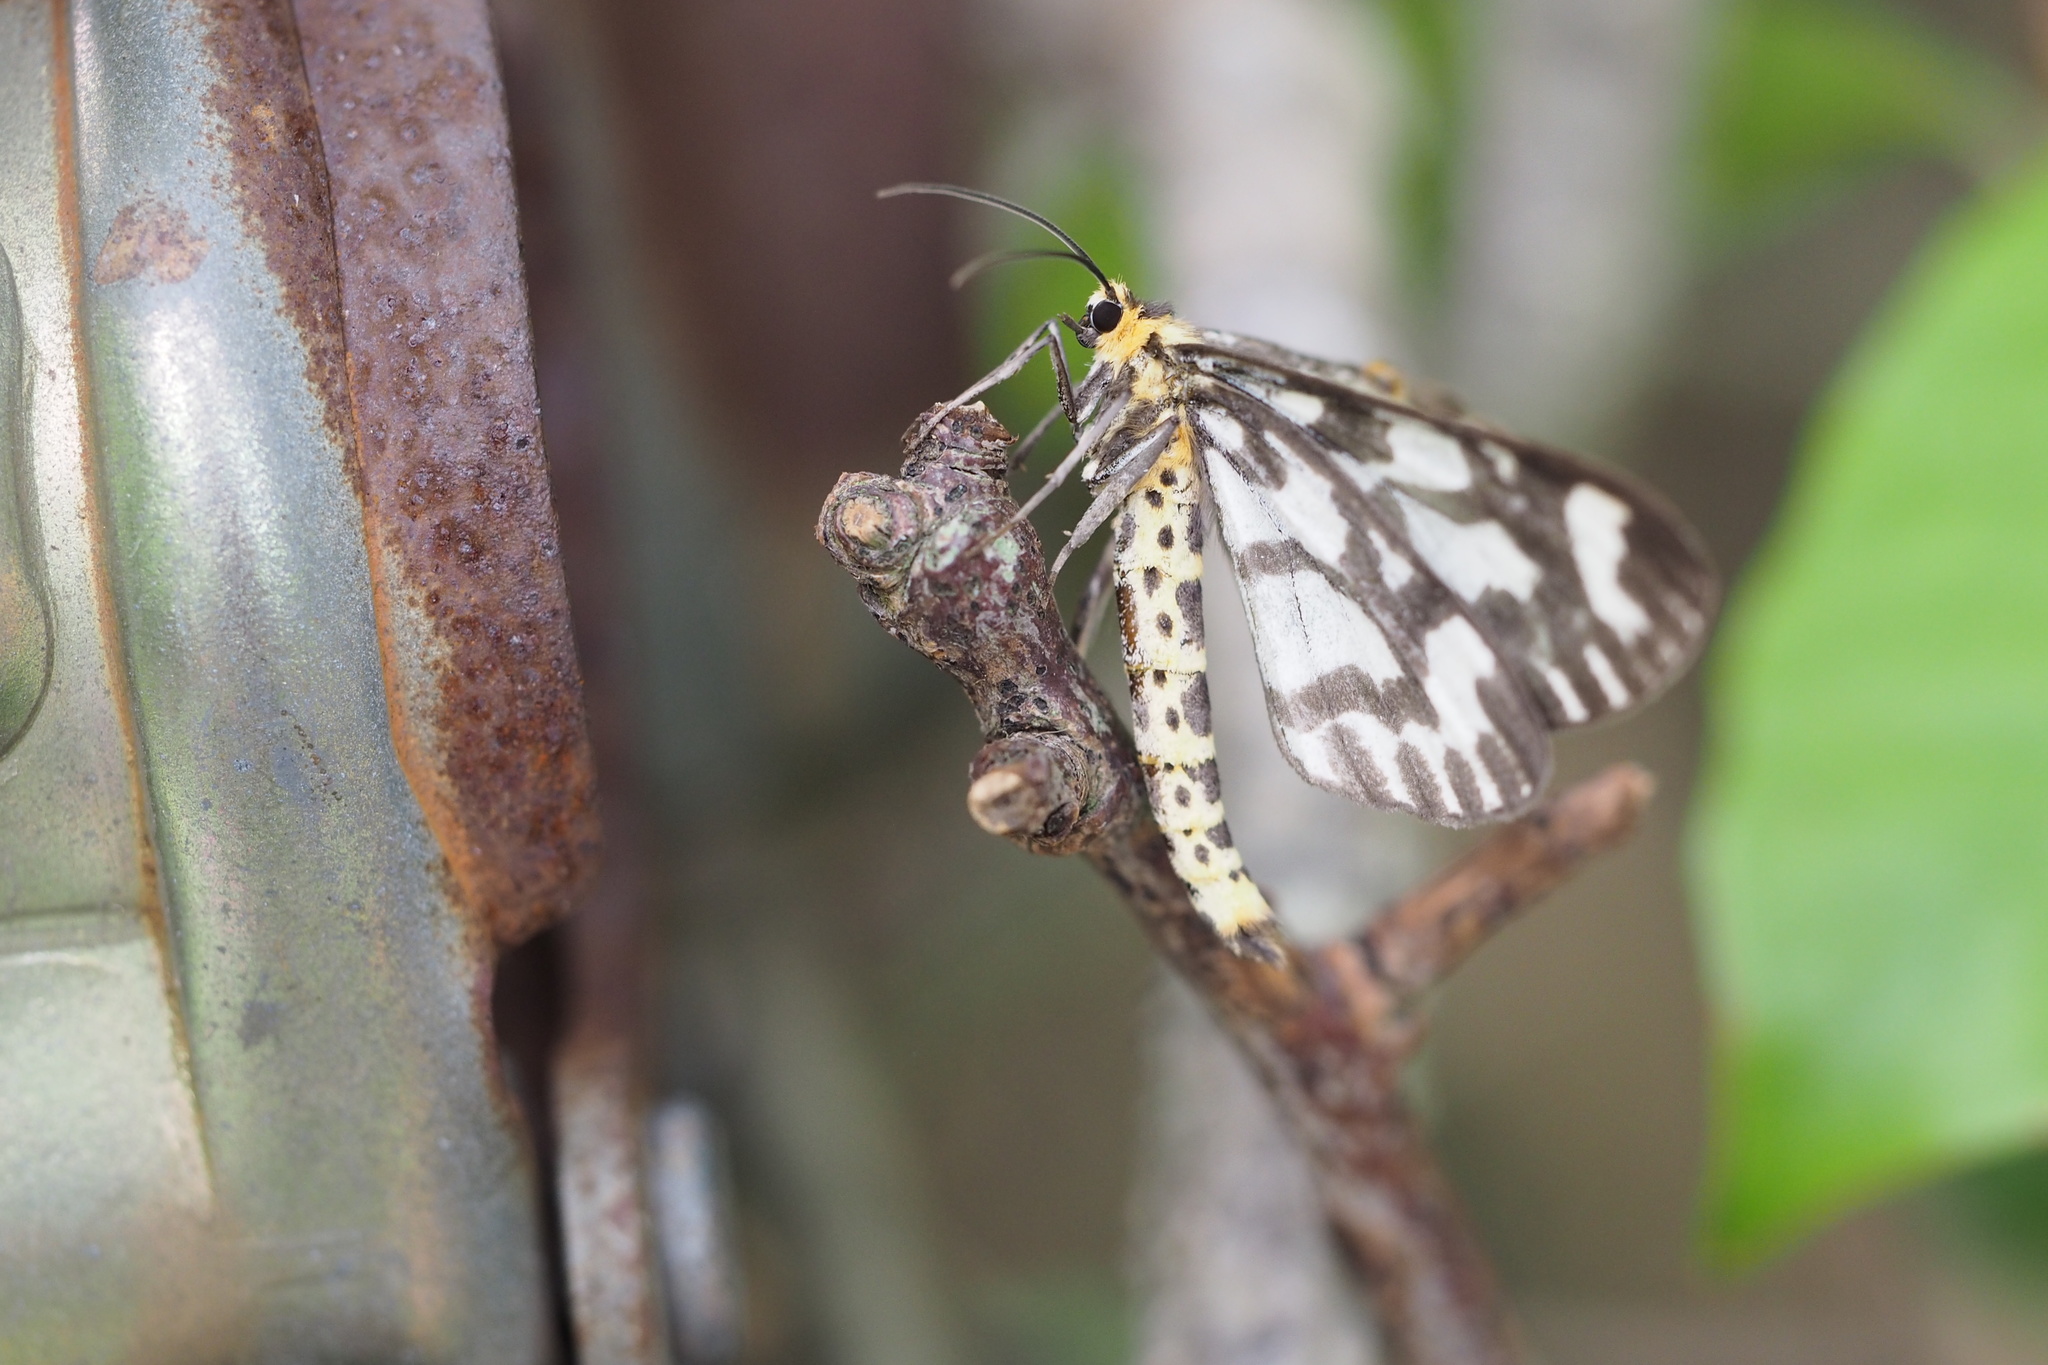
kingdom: Animalia
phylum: Arthropoda
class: Insecta
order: Lepidoptera
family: Geometridae
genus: Cystidia
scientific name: Cystidia couaggaria
